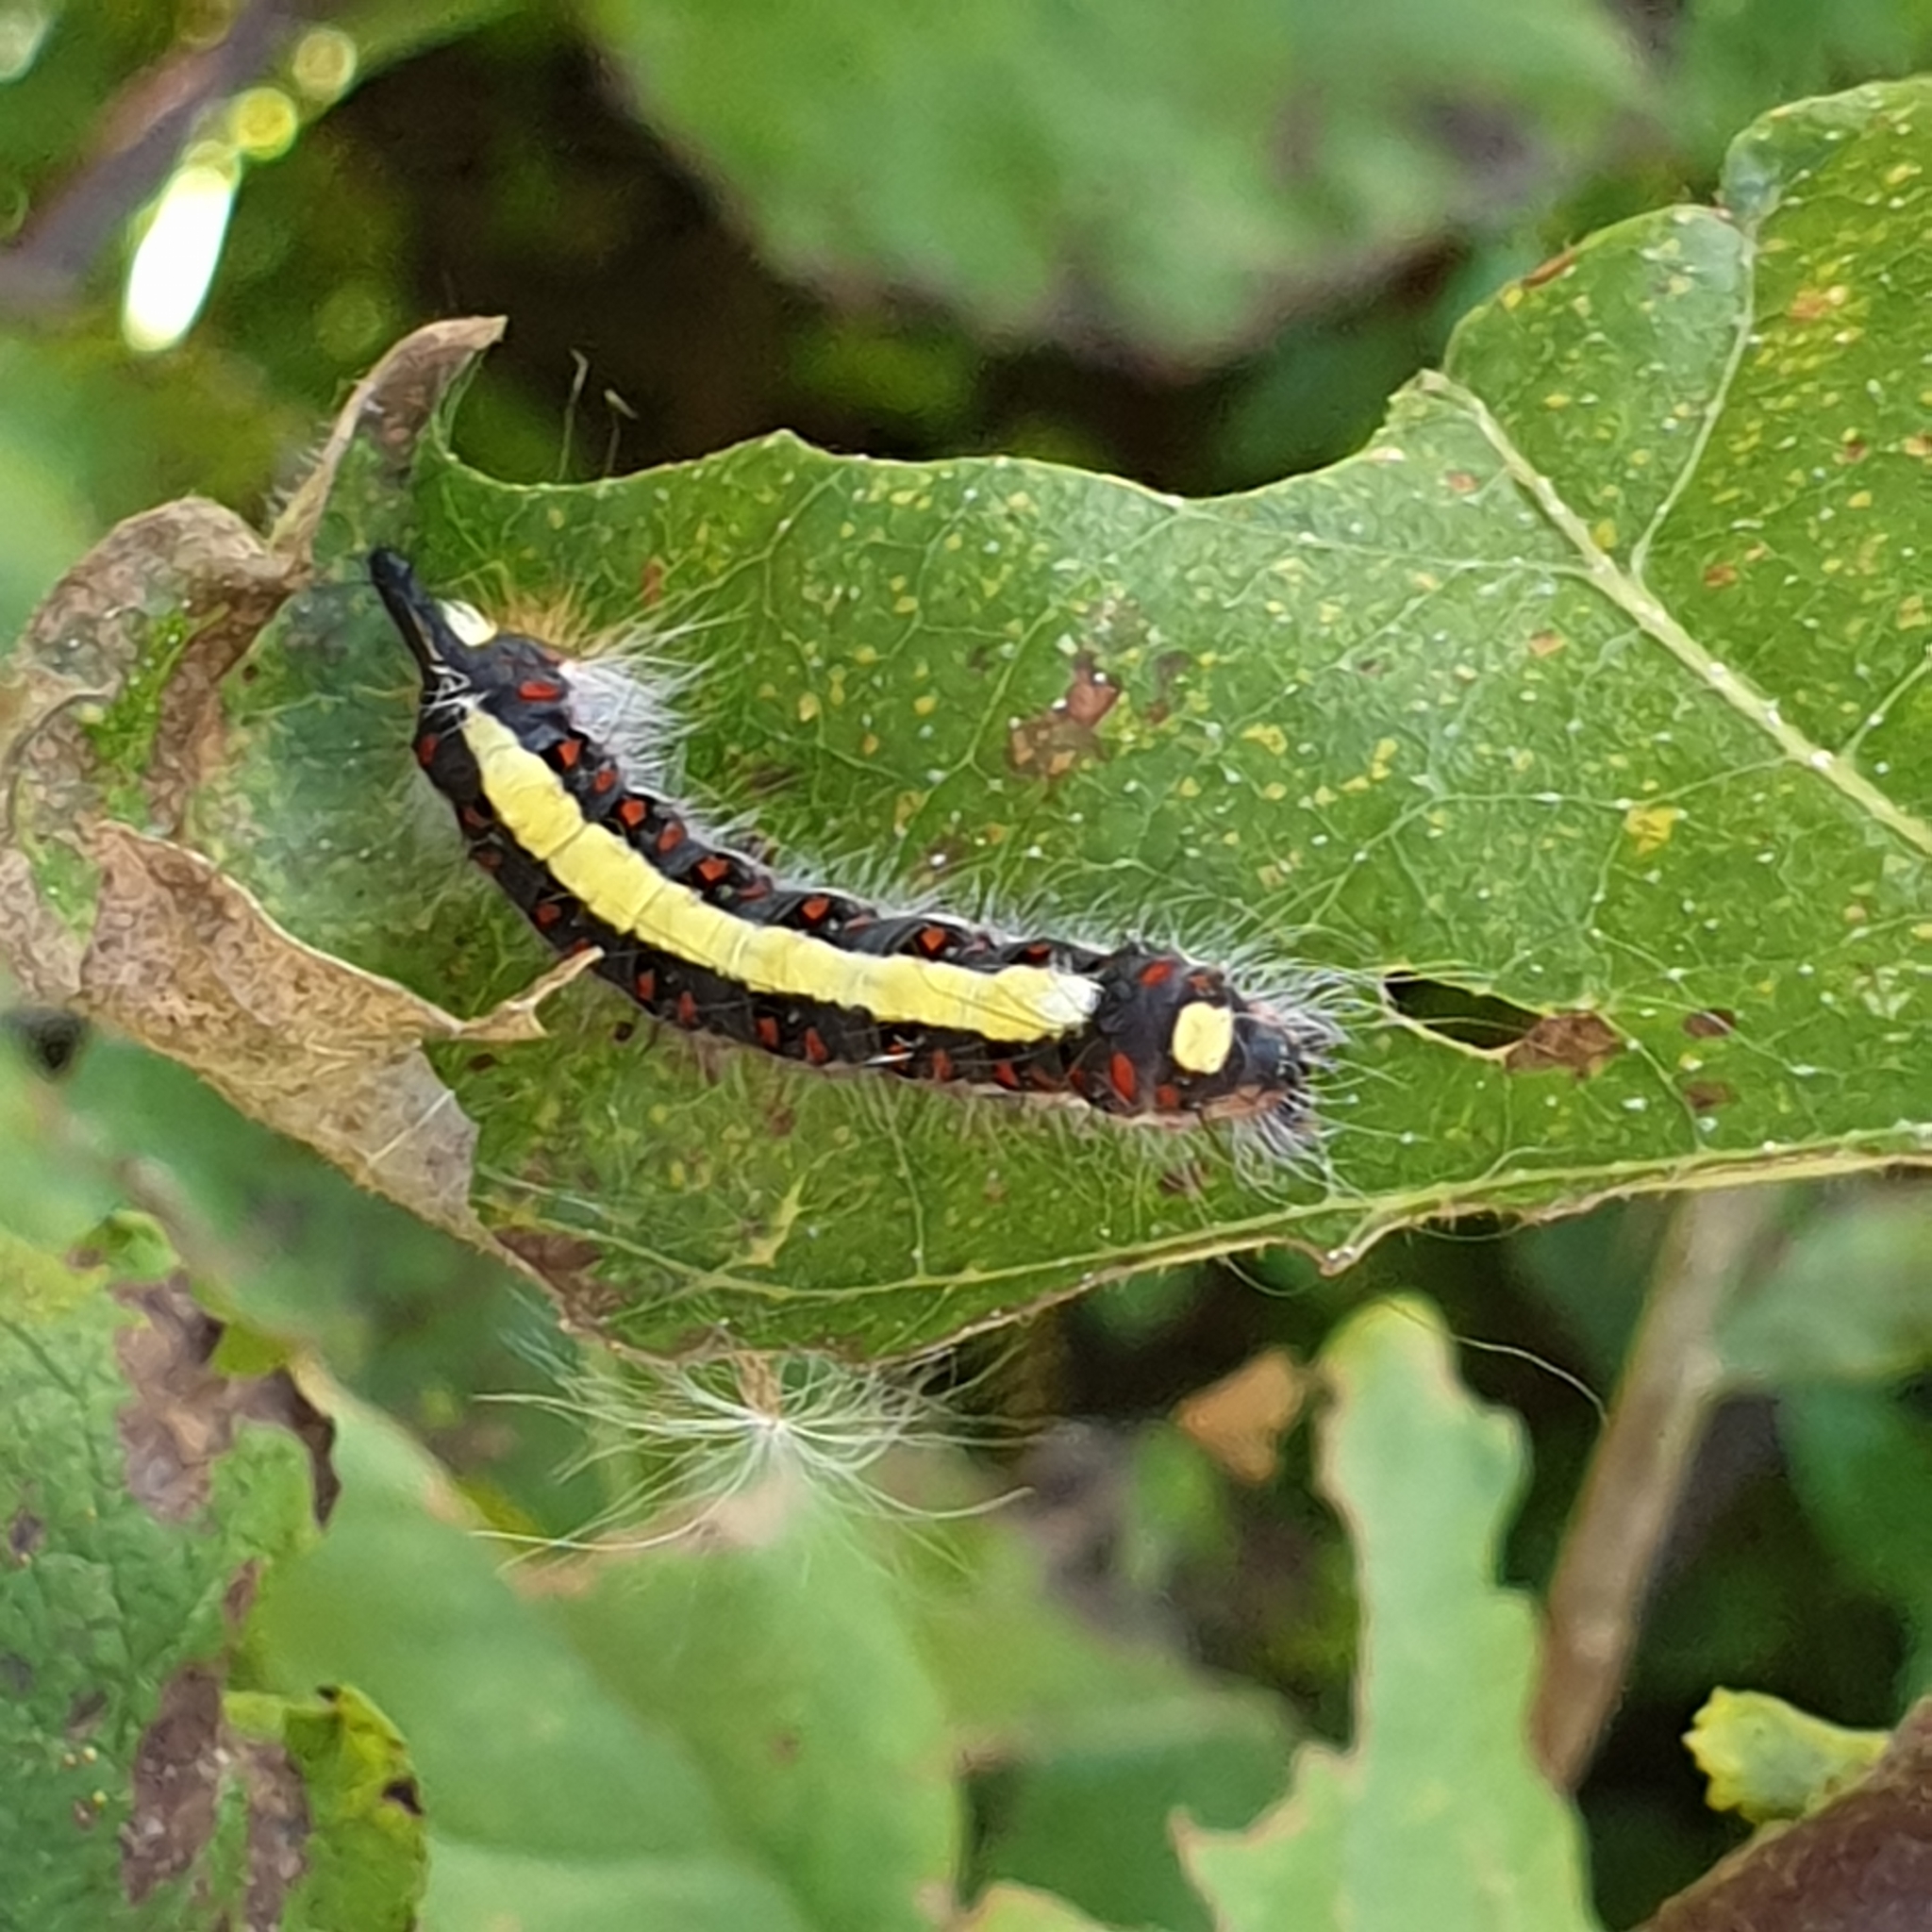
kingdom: Animalia
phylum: Arthropoda
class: Insecta
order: Lepidoptera
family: Noctuidae
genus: Acronicta
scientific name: Acronicta psi
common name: Grey dagger
